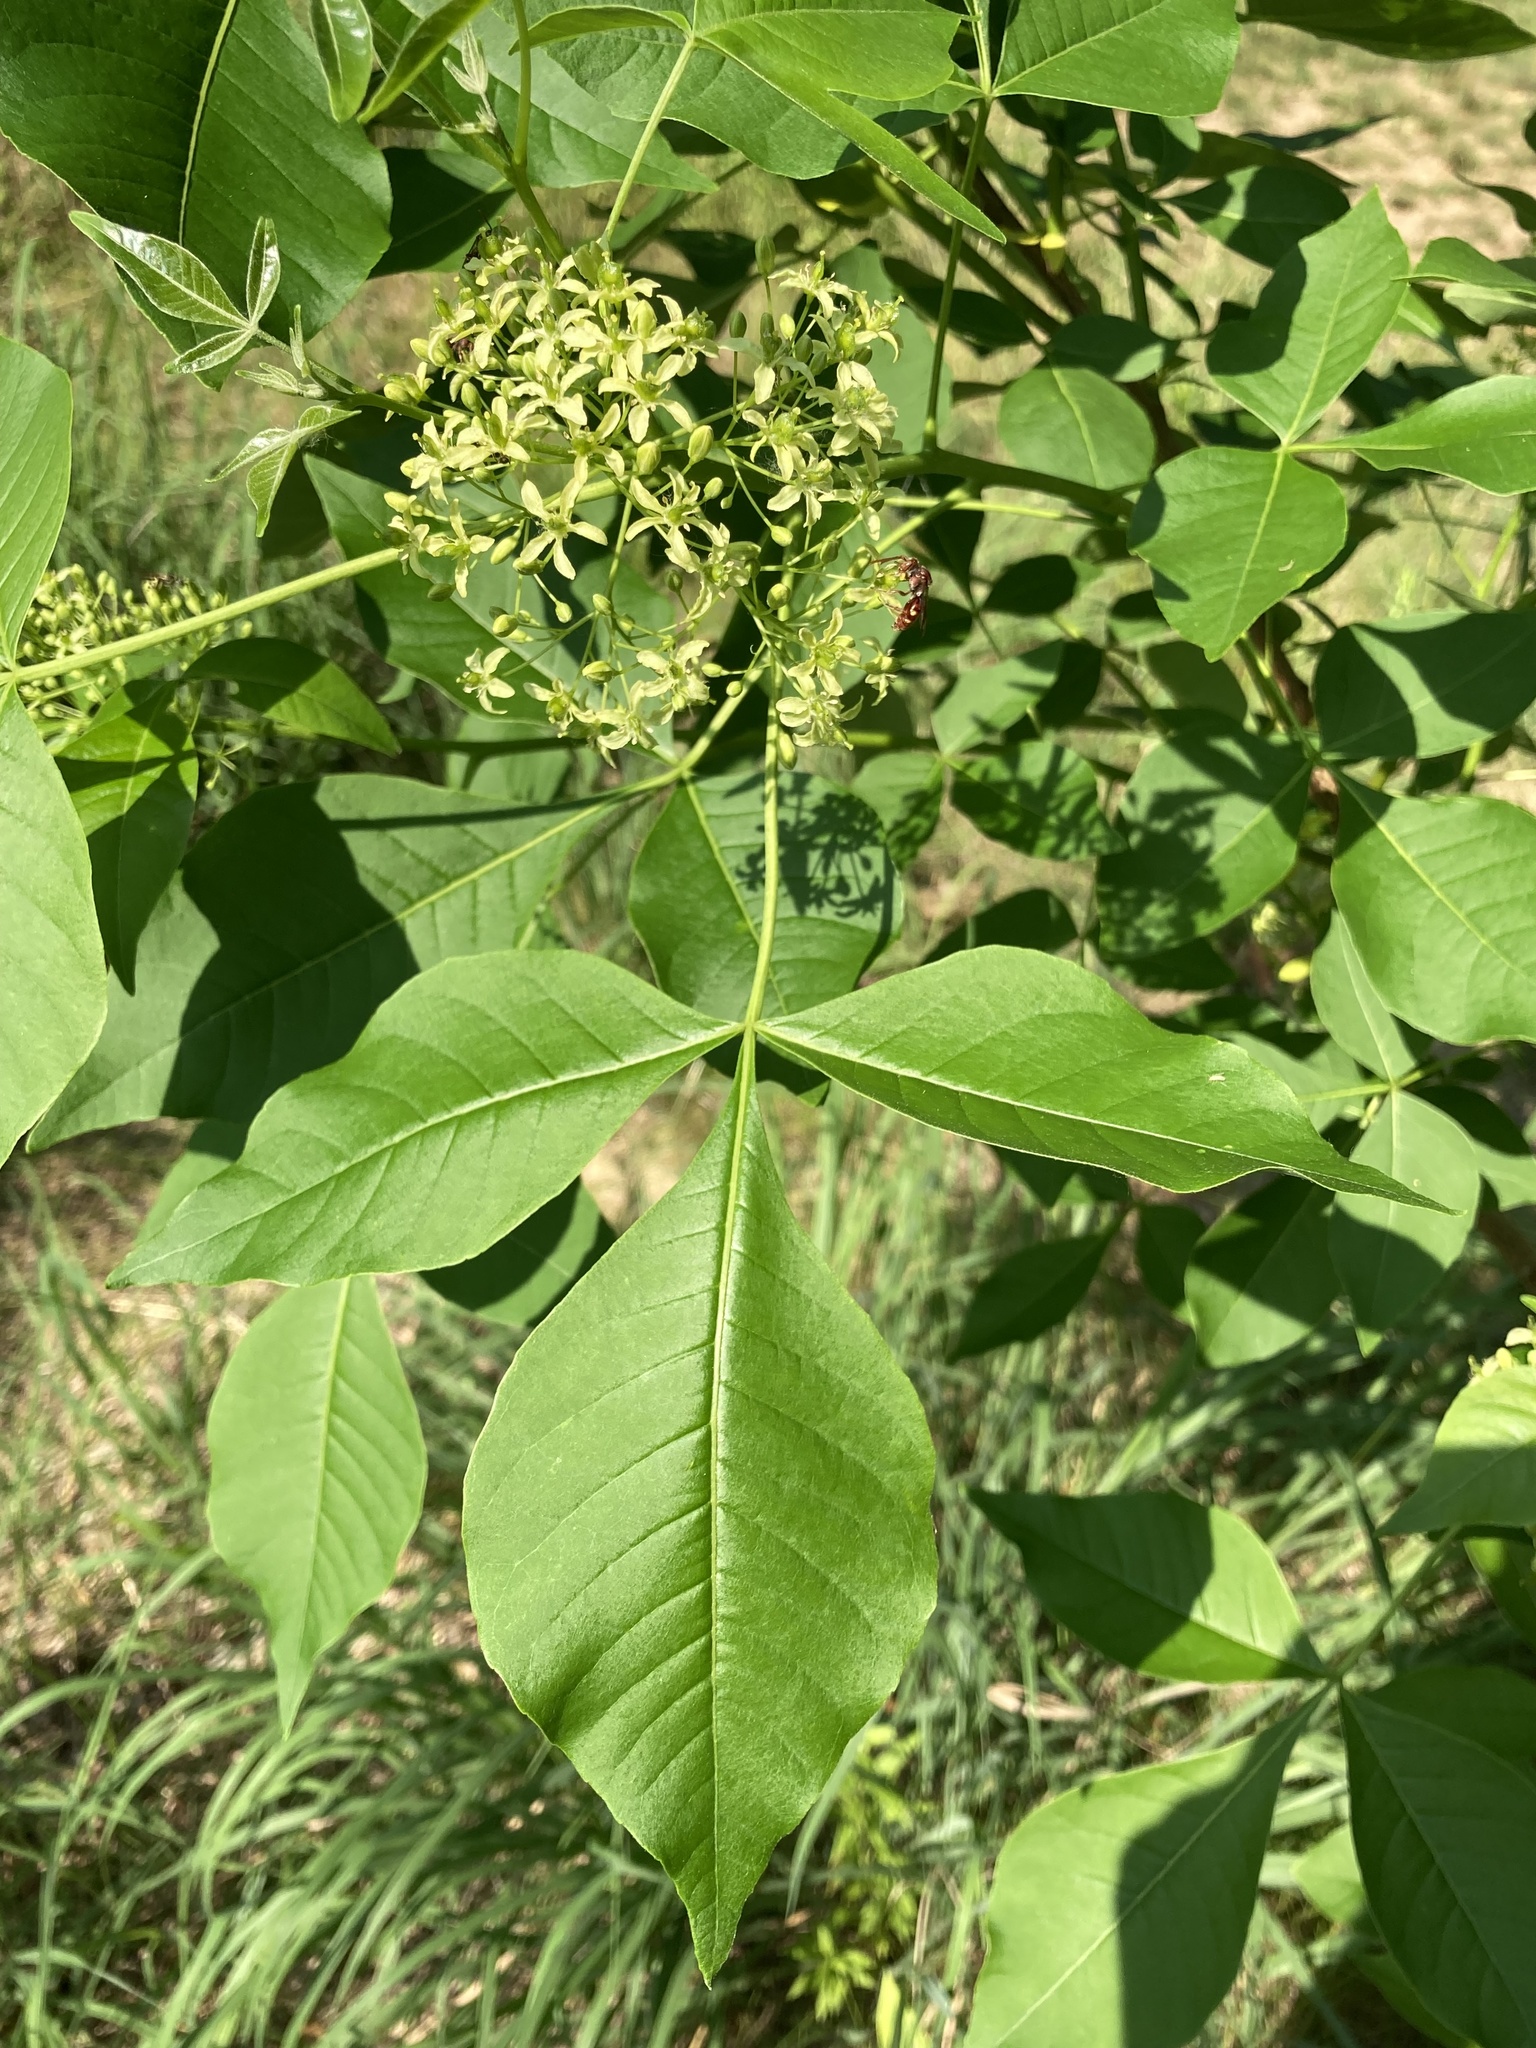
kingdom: Plantae
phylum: Tracheophyta
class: Magnoliopsida
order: Sapindales
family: Rutaceae
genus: Ptelea
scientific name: Ptelea trifoliata
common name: Common hop-tree
